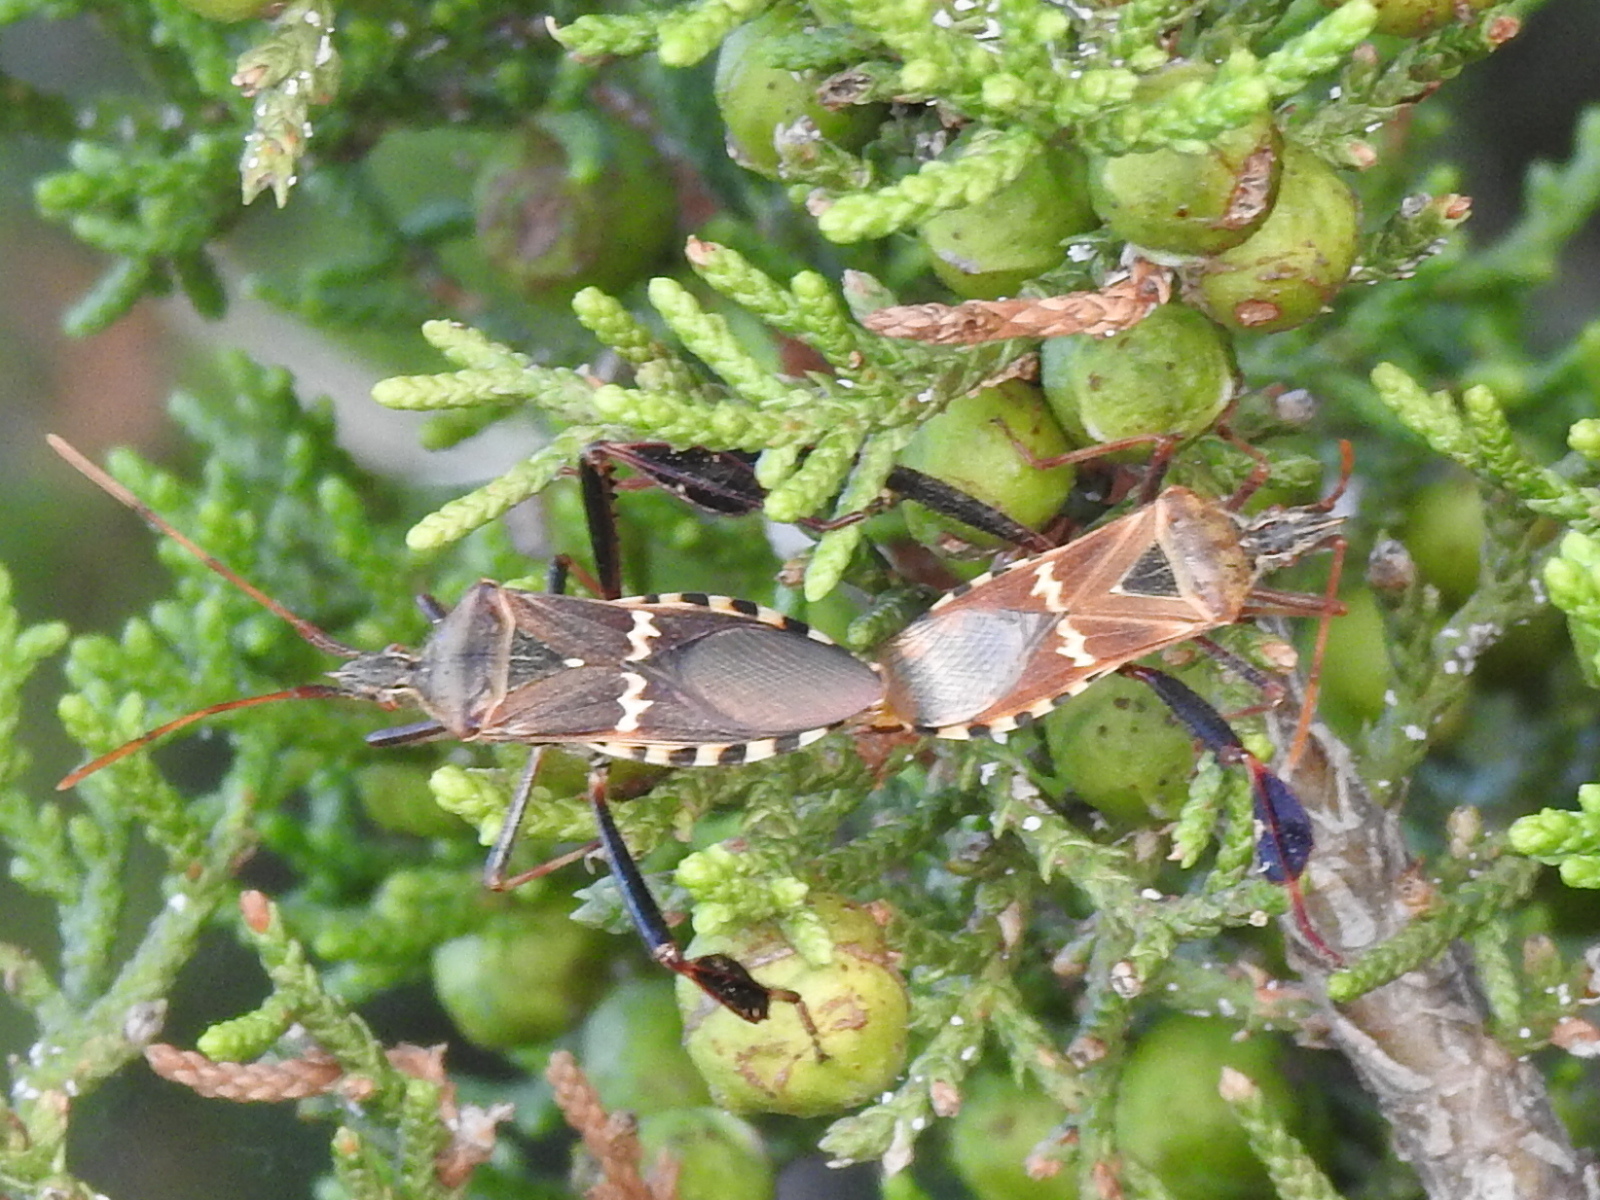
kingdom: Animalia
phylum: Arthropoda
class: Insecta
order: Hemiptera
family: Coreidae
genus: Leptoglossus
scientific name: Leptoglossus clypealis
